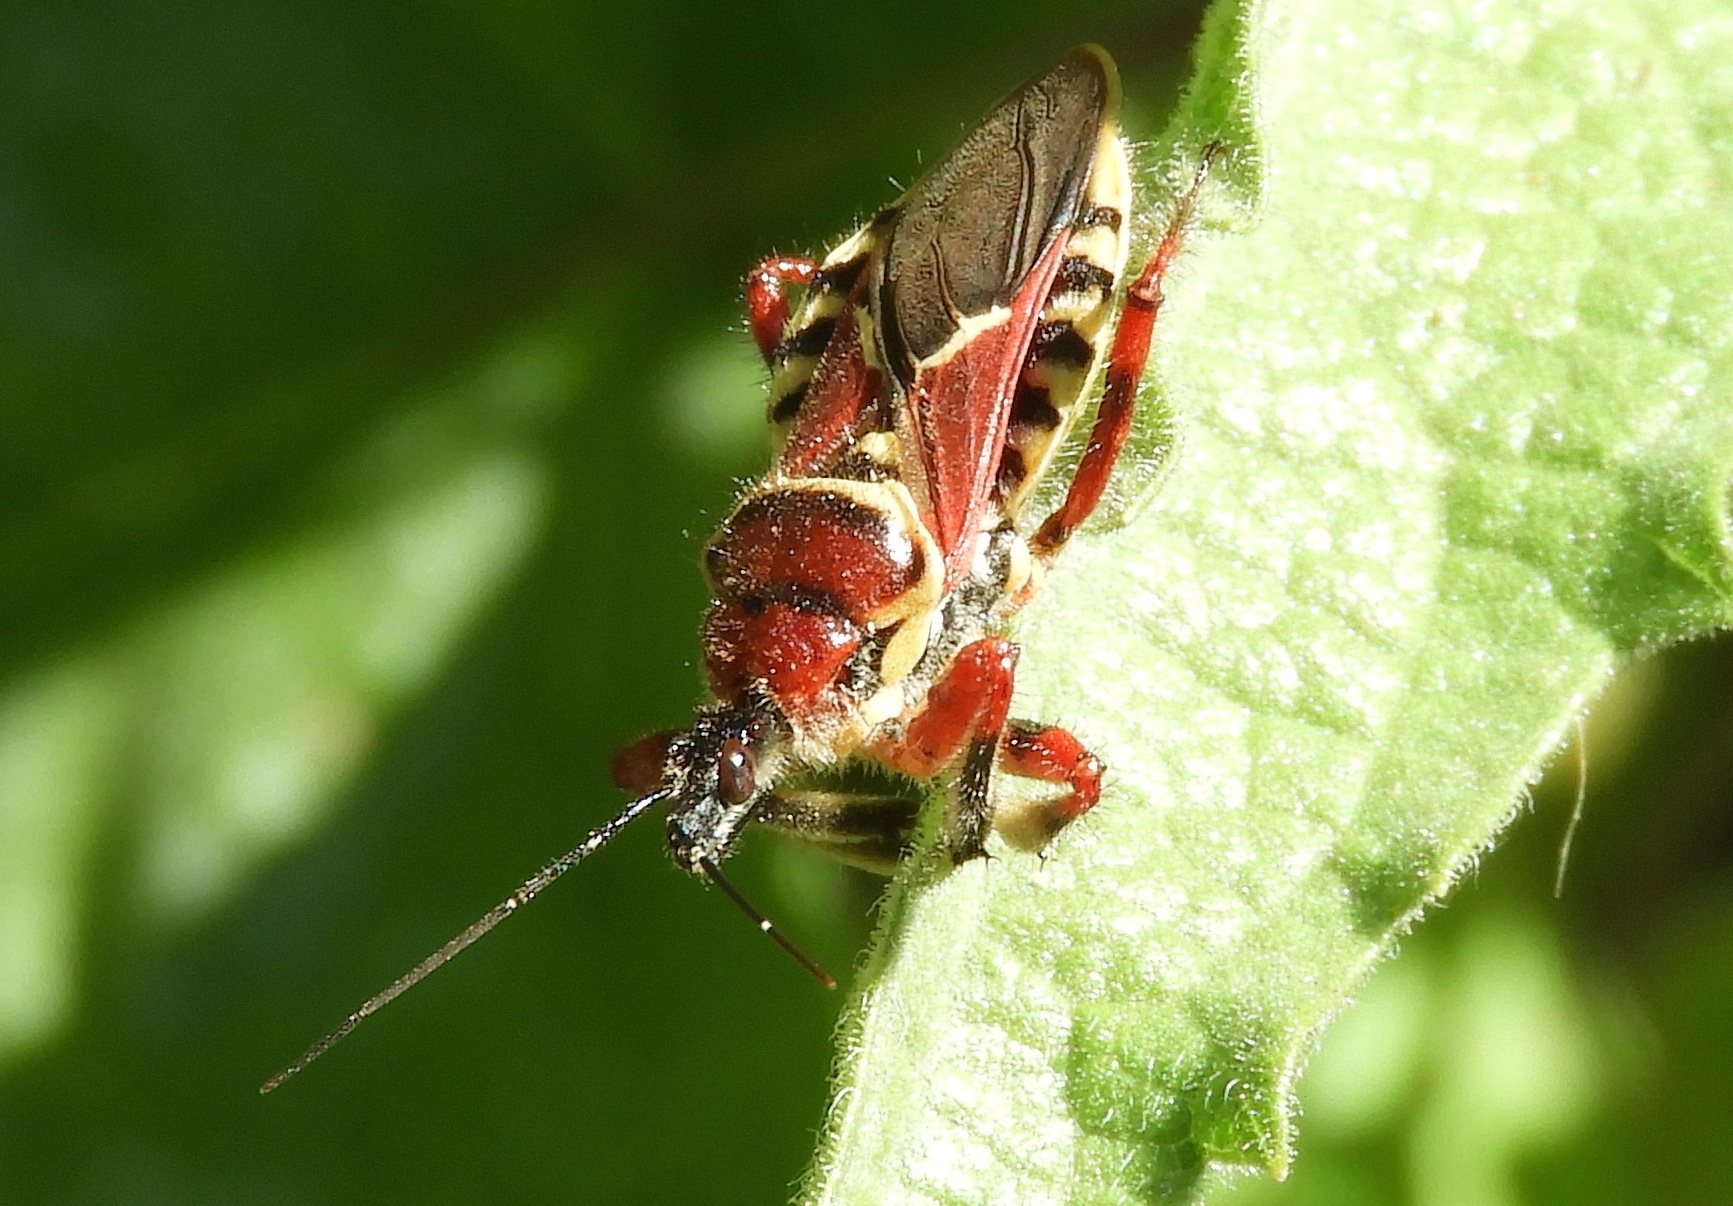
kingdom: Animalia
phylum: Arthropoda
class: Insecta
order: Hemiptera
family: Reduviidae
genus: Apiomerus
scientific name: Apiomerus
